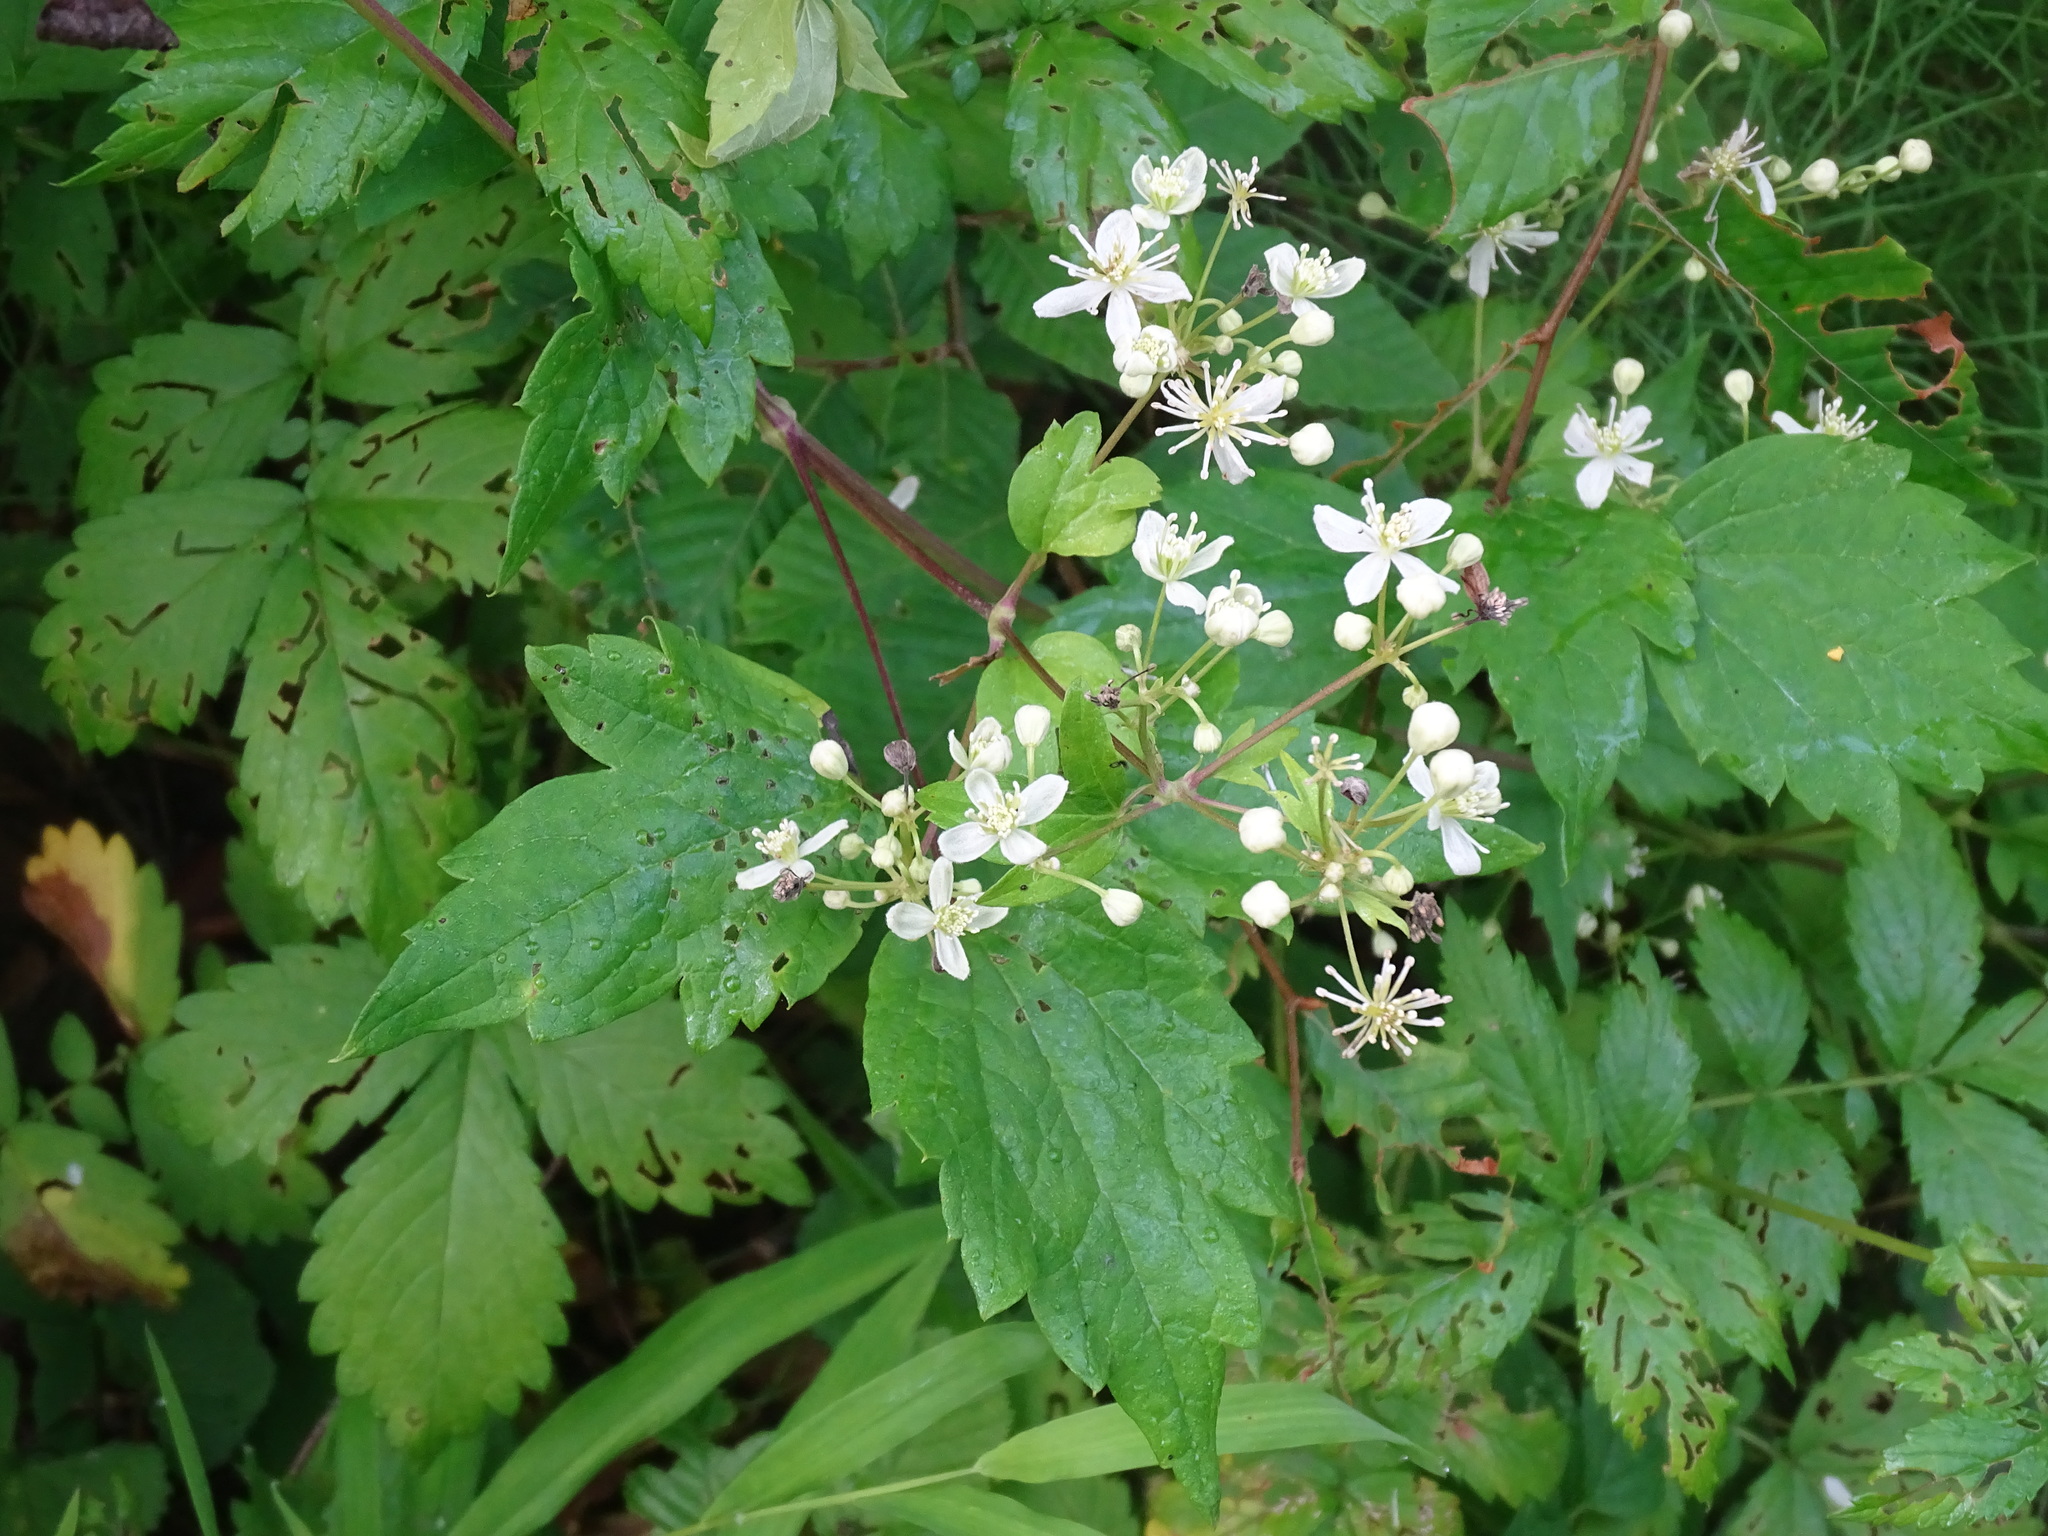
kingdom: Plantae
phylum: Tracheophyta
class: Magnoliopsida
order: Ranunculales
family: Ranunculaceae
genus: Clematis
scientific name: Clematis virginiana
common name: Virgin's-bower
